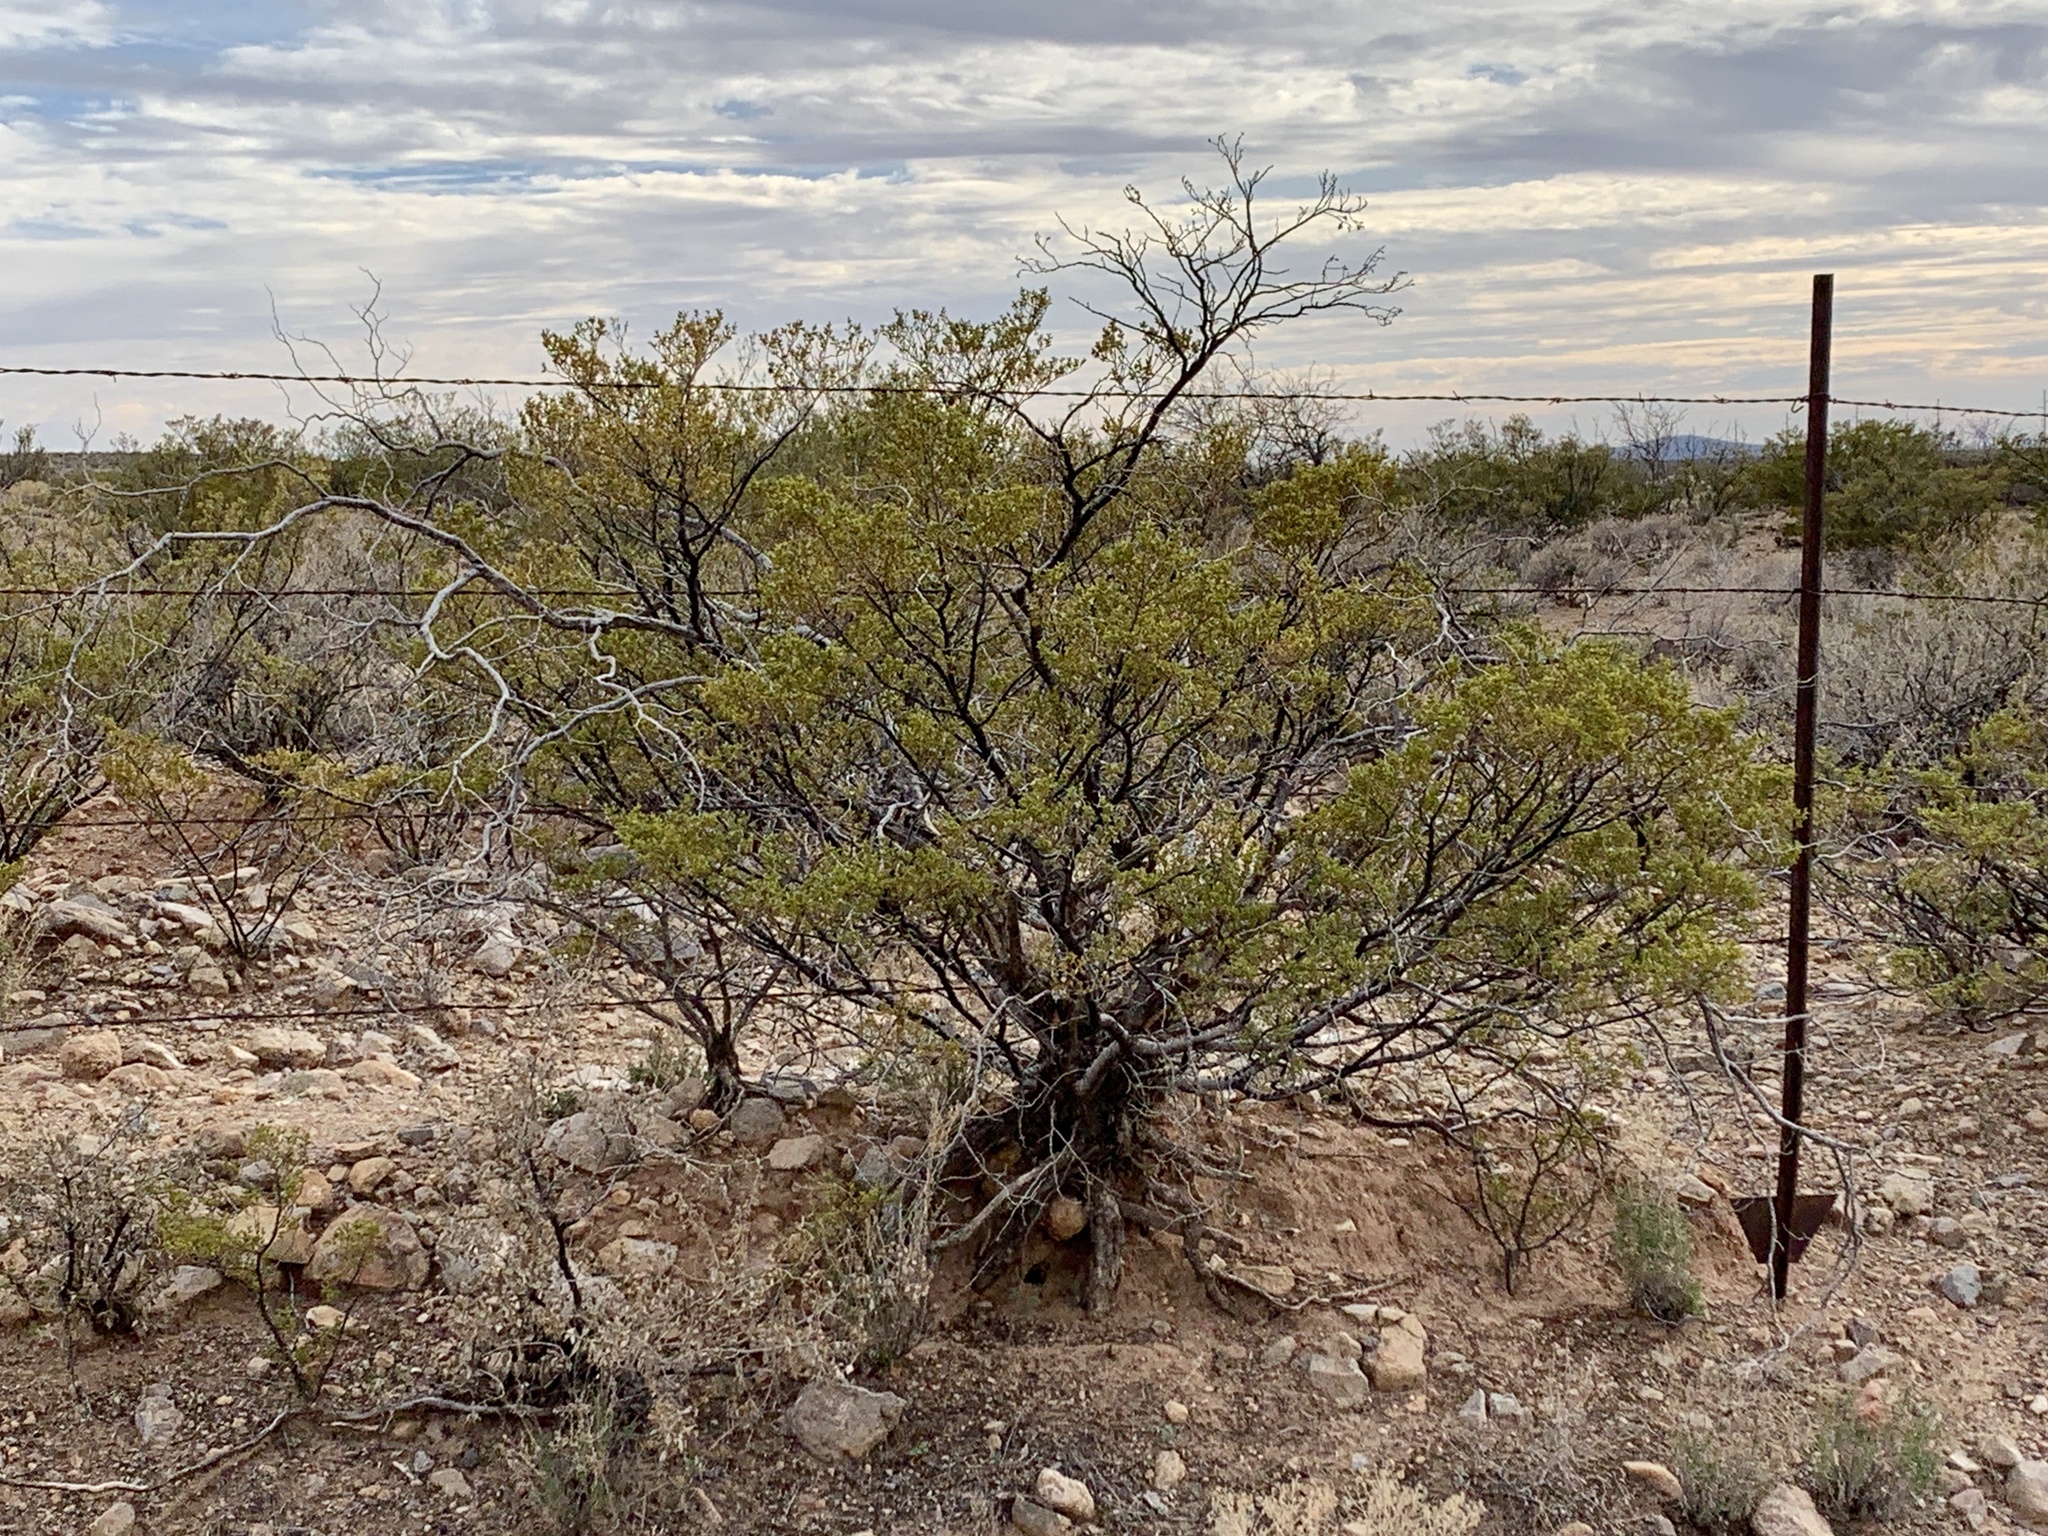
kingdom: Plantae
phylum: Tracheophyta
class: Magnoliopsida
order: Zygophyllales
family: Zygophyllaceae
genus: Larrea
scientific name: Larrea tridentata
